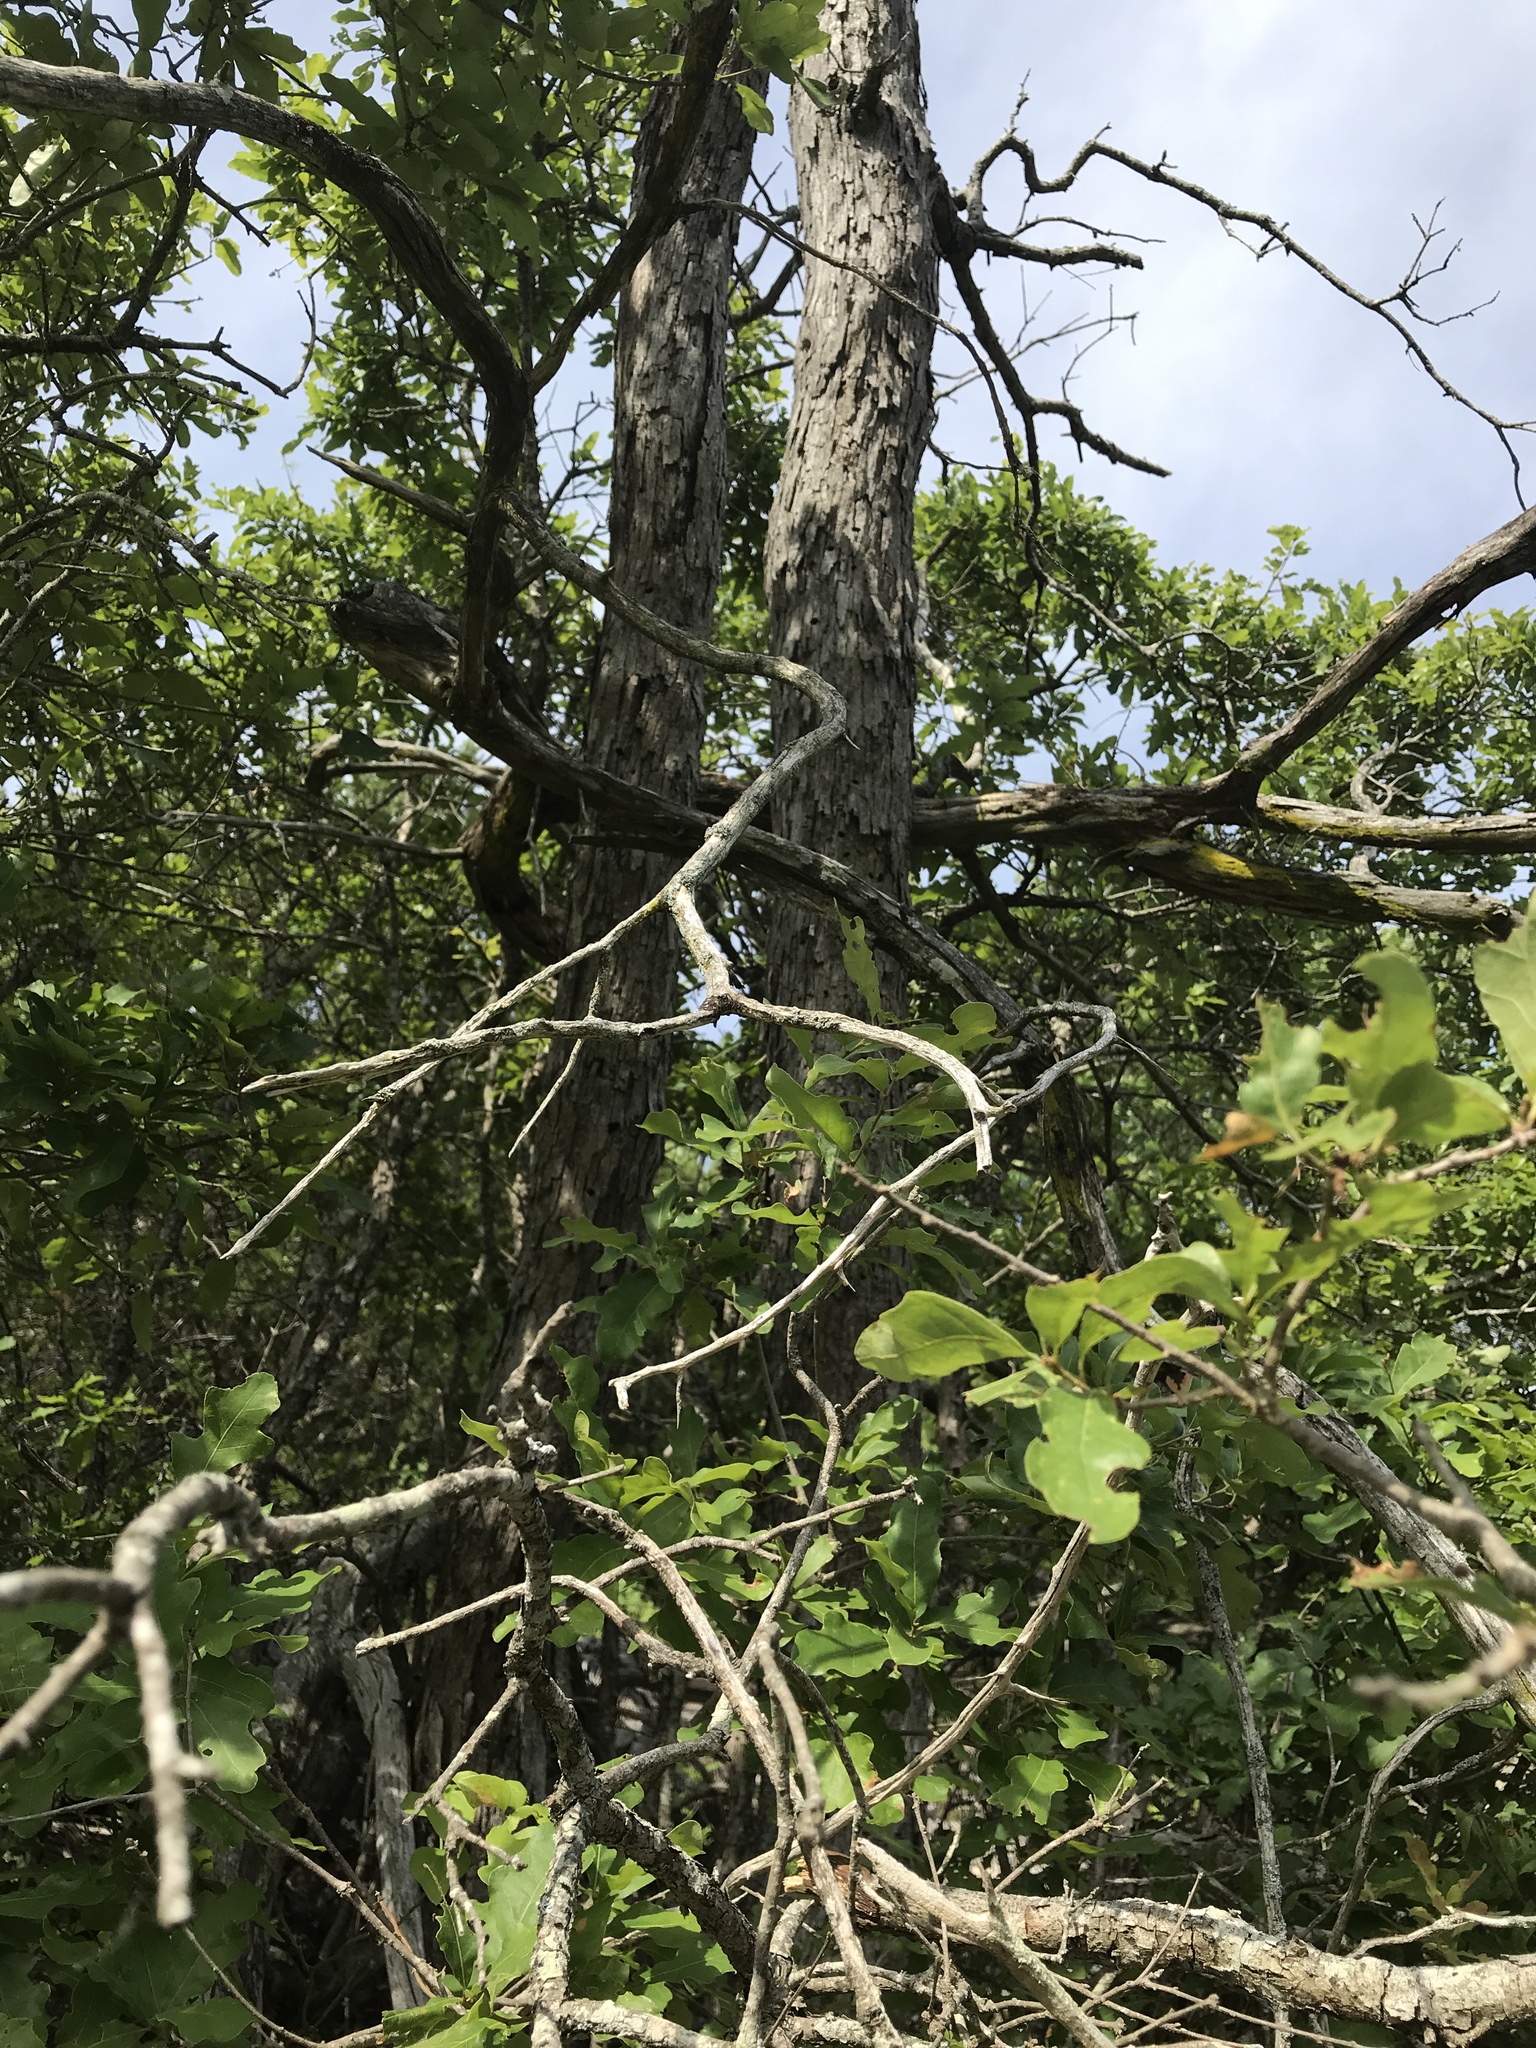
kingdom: Plantae
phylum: Tracheophyta
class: Magnoliopsida
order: Fagales
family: Fagaceae
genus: Quercus
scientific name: Quercus sinuata
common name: Durand oak
